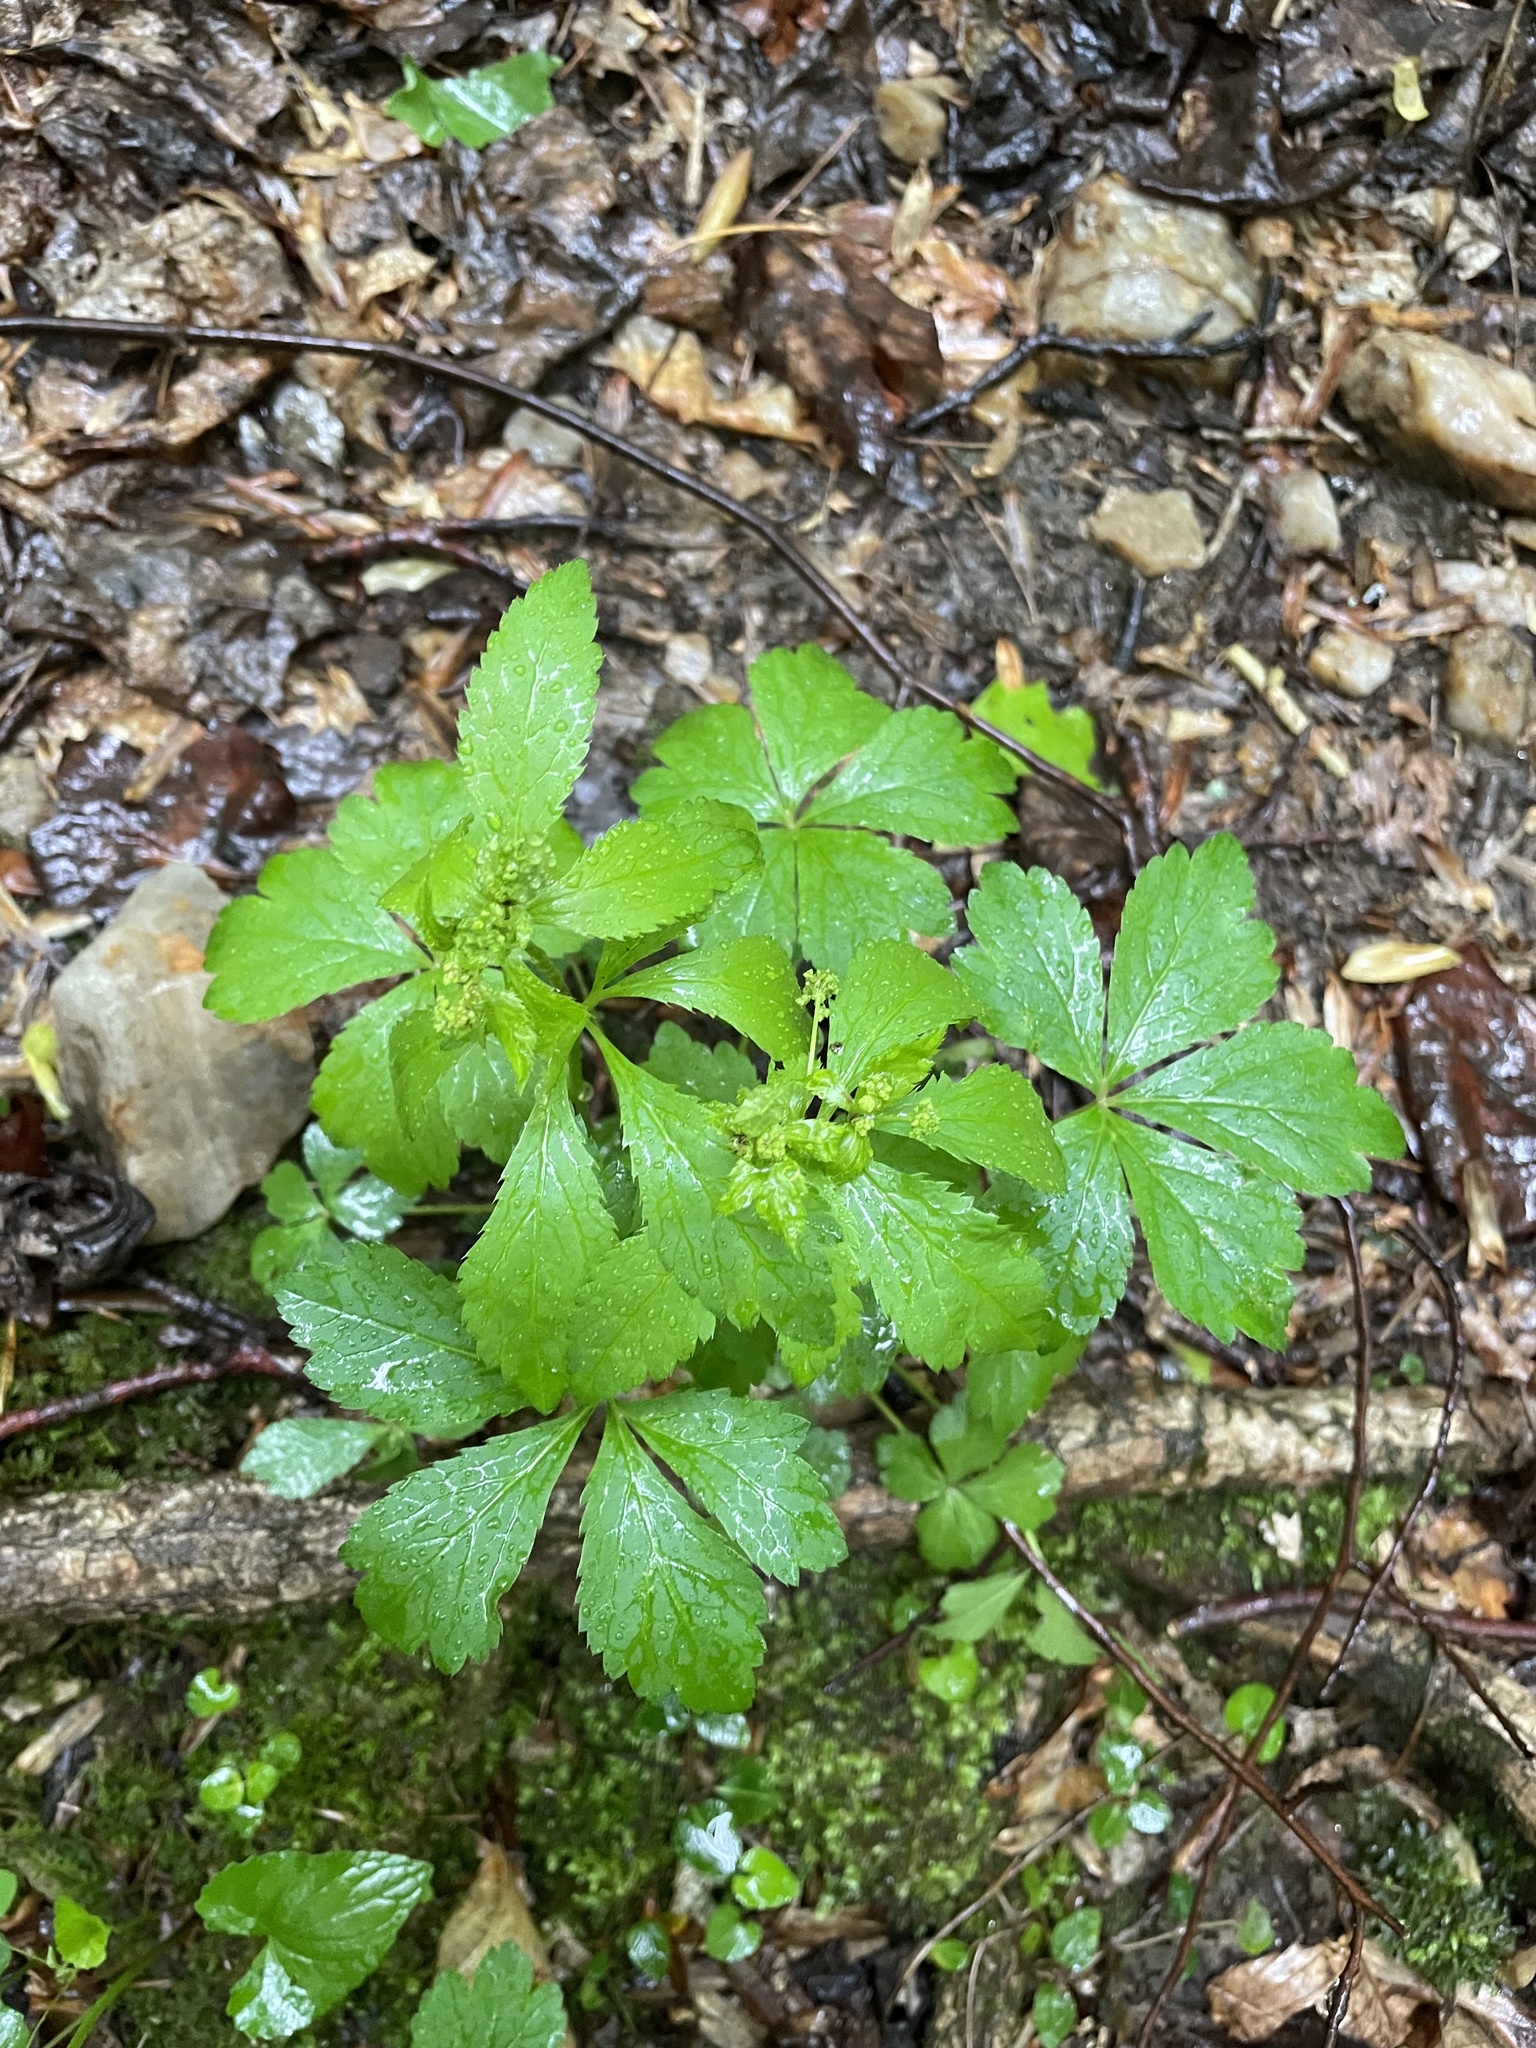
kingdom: Plantae
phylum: Tracheophyta
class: Magnoliopsida
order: Apiales
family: Apiaceae
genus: Sanicula
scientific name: Sanicula canadensis
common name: Canada sanicle
